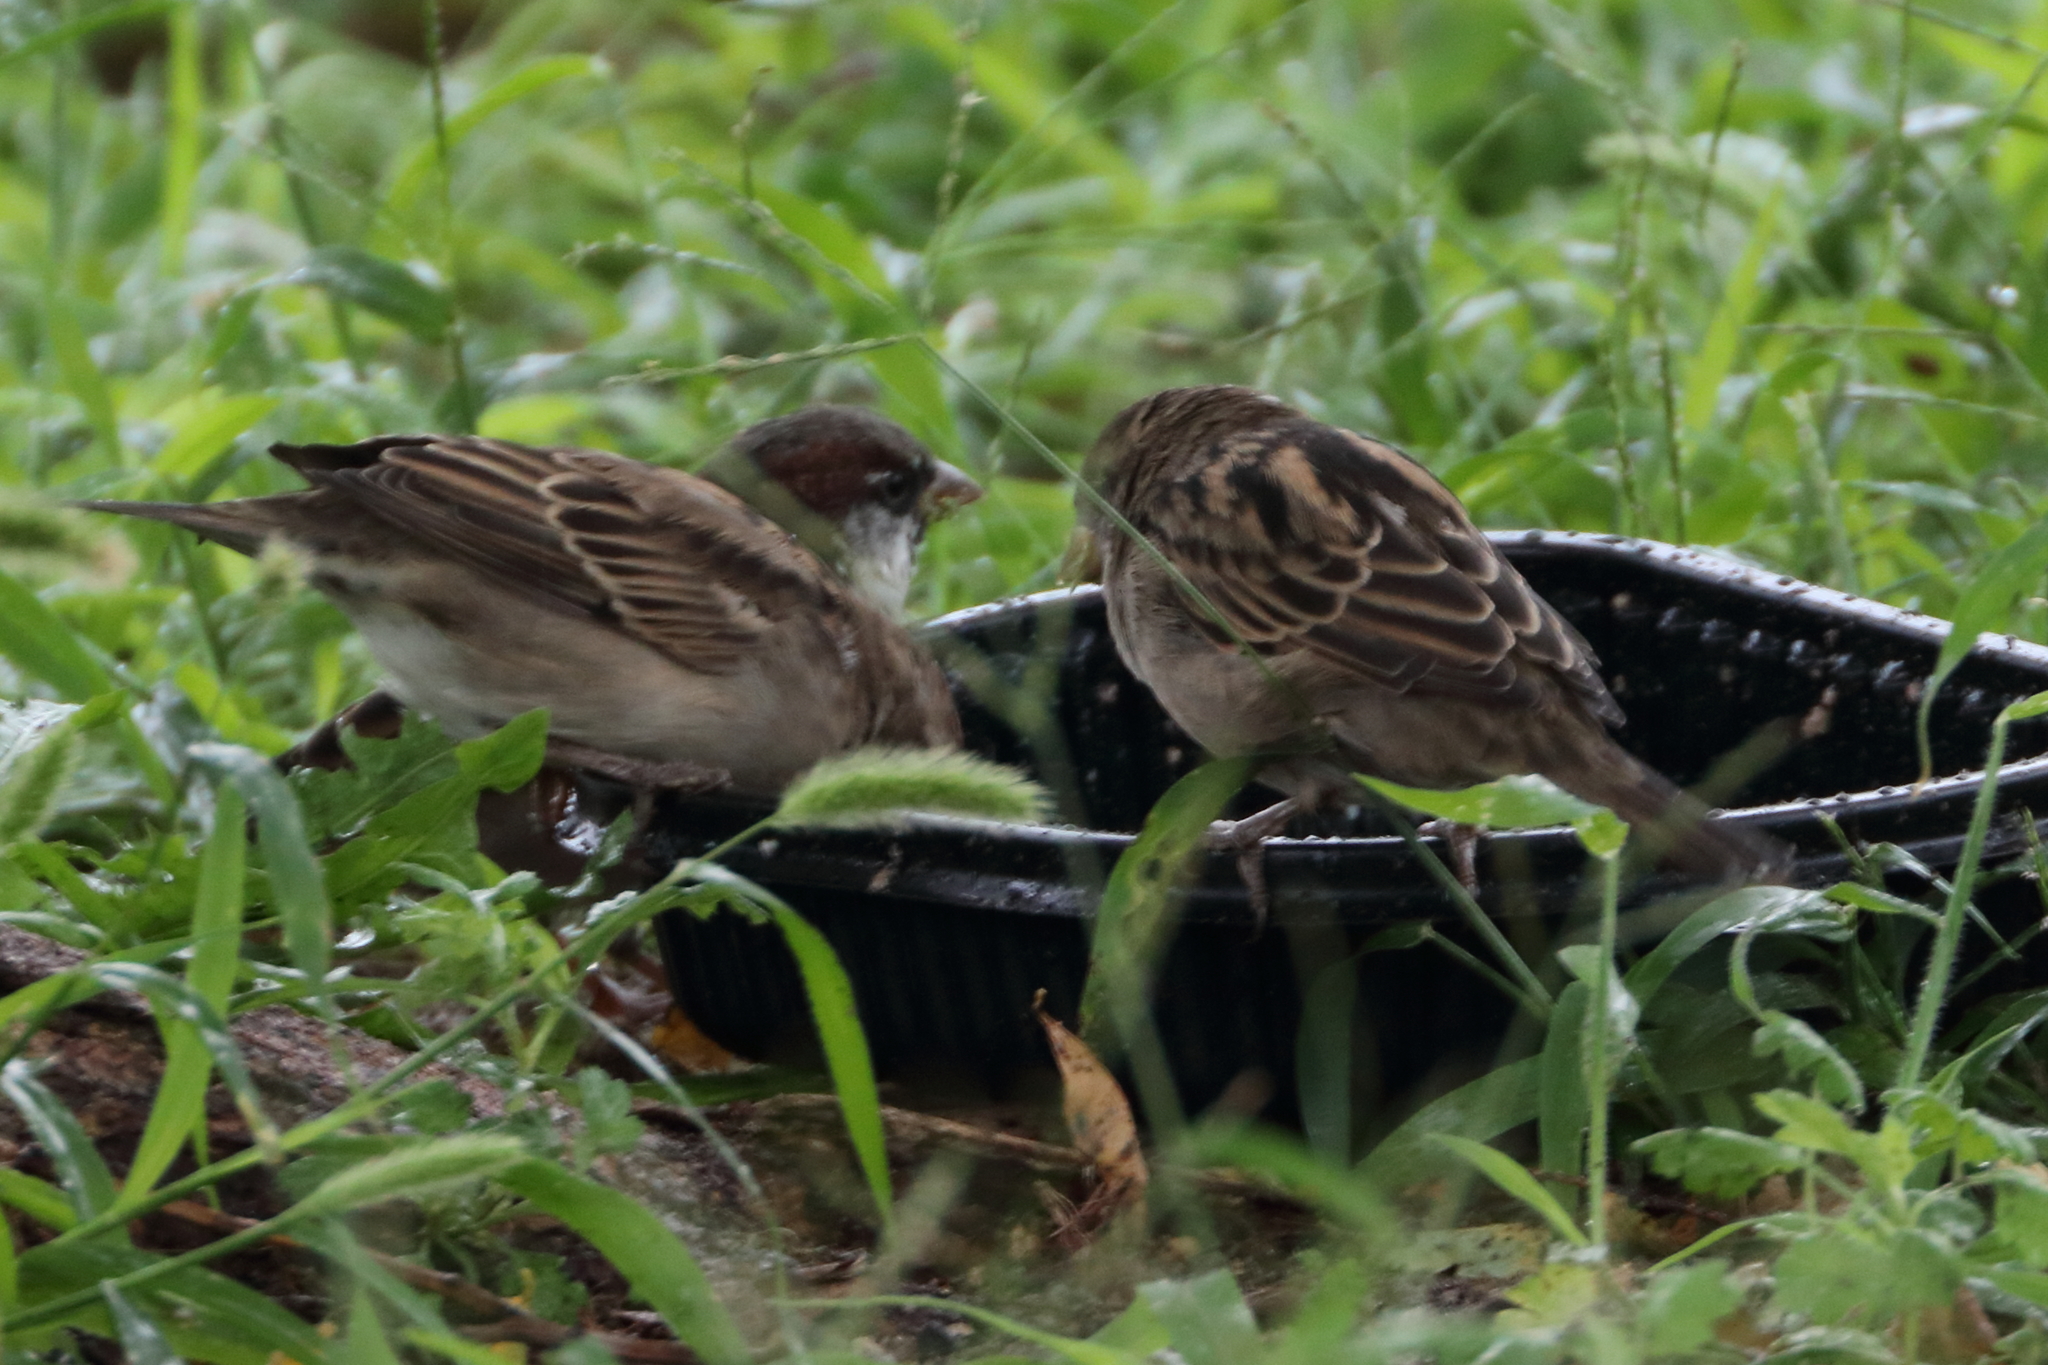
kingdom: Animalia
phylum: Chordata
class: Aves
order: Passeriformes
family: Passeridae
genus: Passer
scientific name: Passer domesticus
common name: House sparrow
